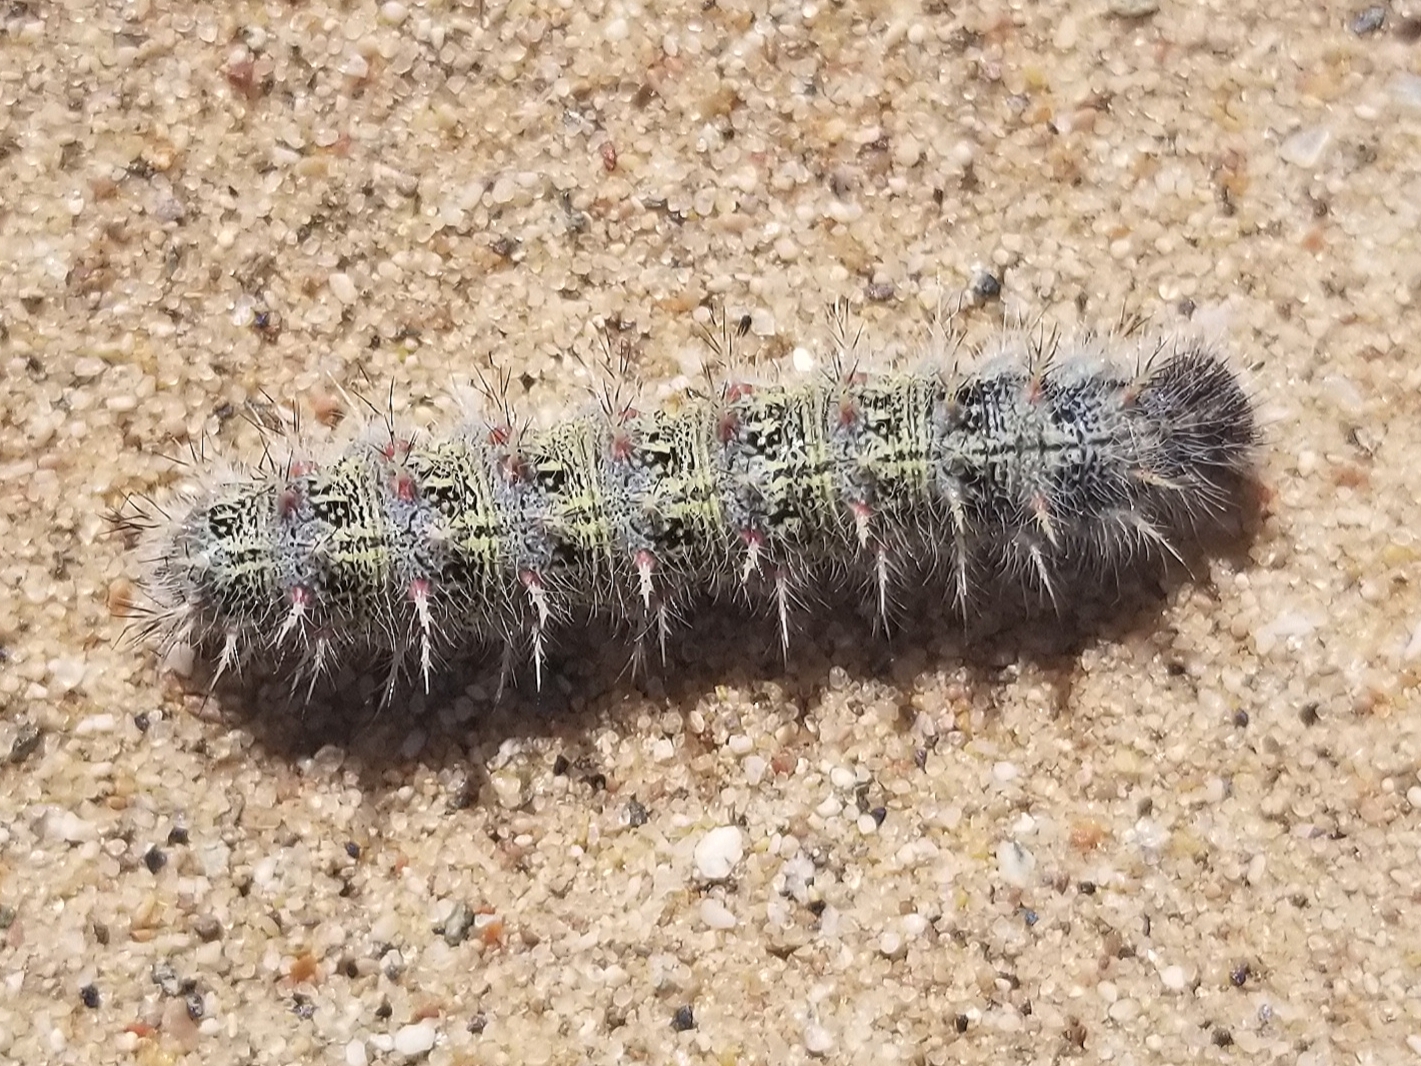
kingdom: Animalia
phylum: Arthropoda
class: Insecta
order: Lepidoptera
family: Nymphalidae
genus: Vanessa
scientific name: Vanessa cardui
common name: Painted lady
